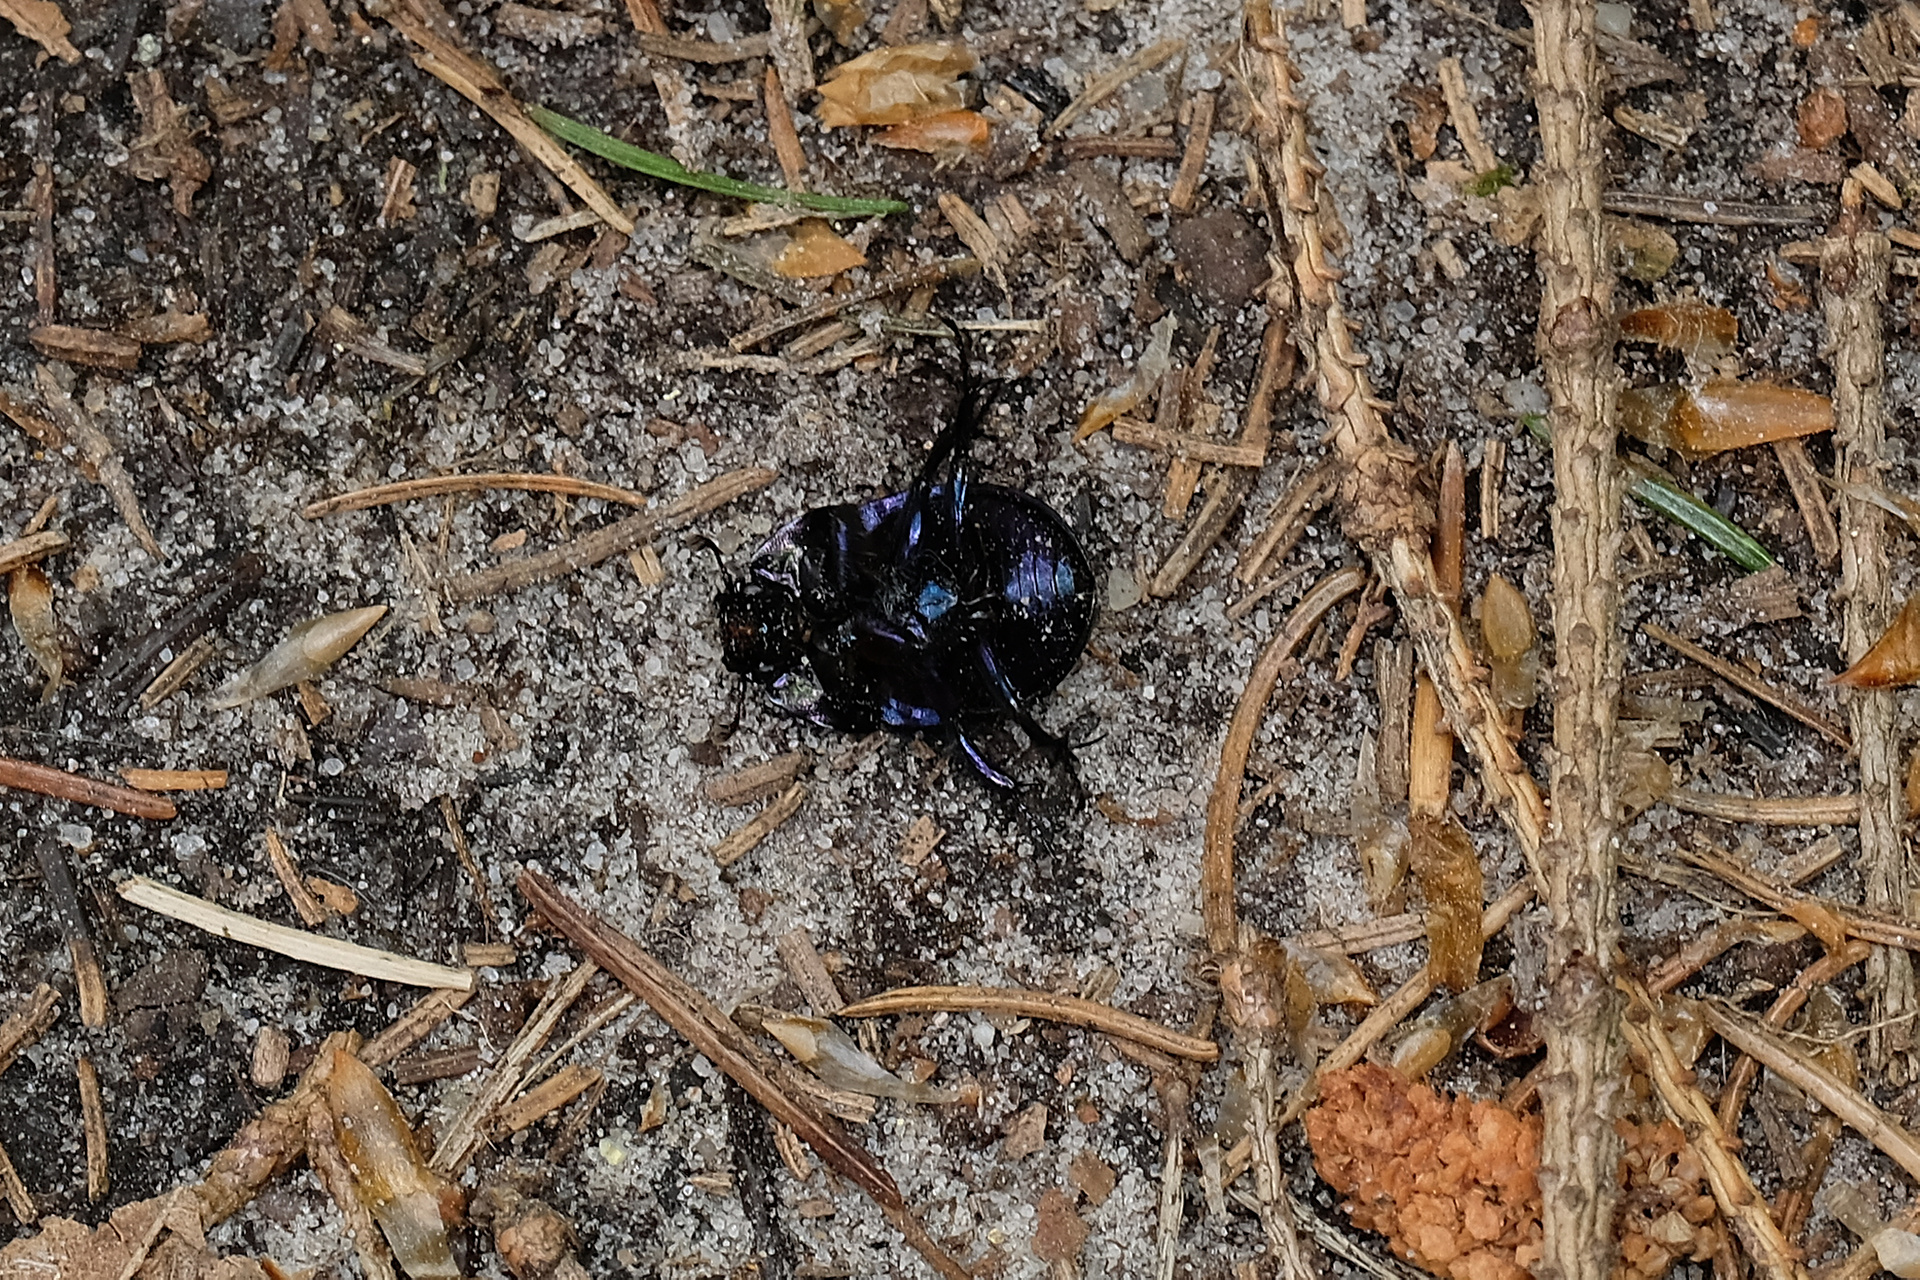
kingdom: Animalia
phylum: Arthropoda
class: Insecta
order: Coleoptera
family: Geotrupidae
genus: Anoplotrupes
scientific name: Anoplotrupes stercorosus
